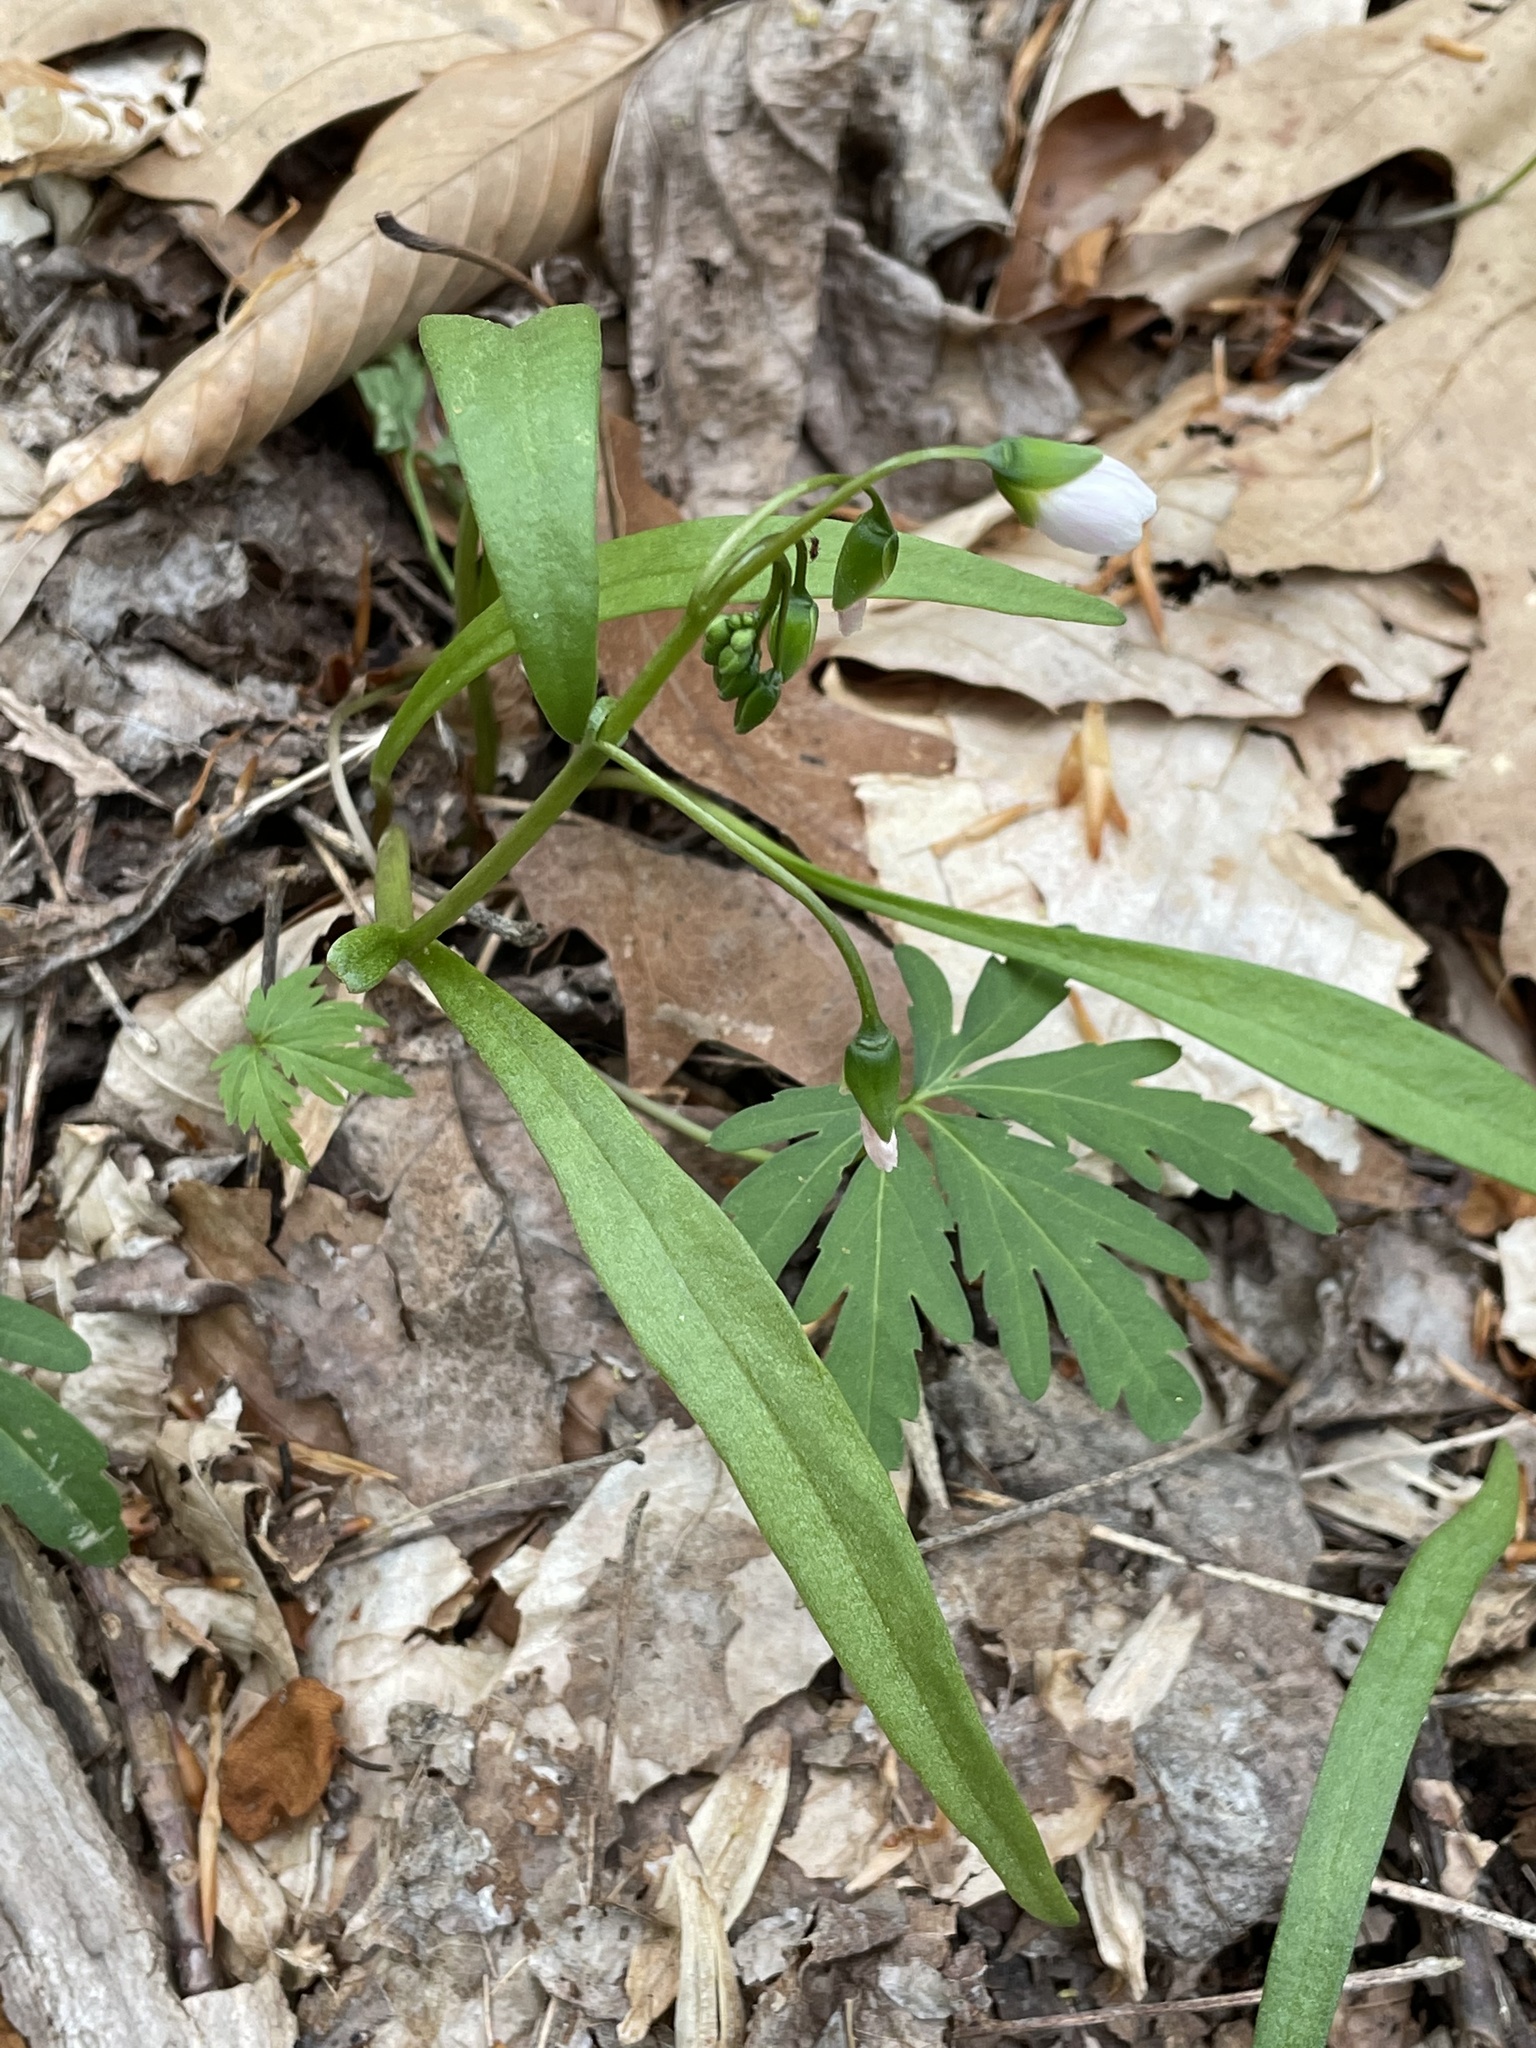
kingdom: Plantae
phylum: Tracheophyta
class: Magnoliopsida
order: Caryophyllales
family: Montiaceae
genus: Claytonia
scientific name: Claytonia virginica
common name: Virginia springbeauty
